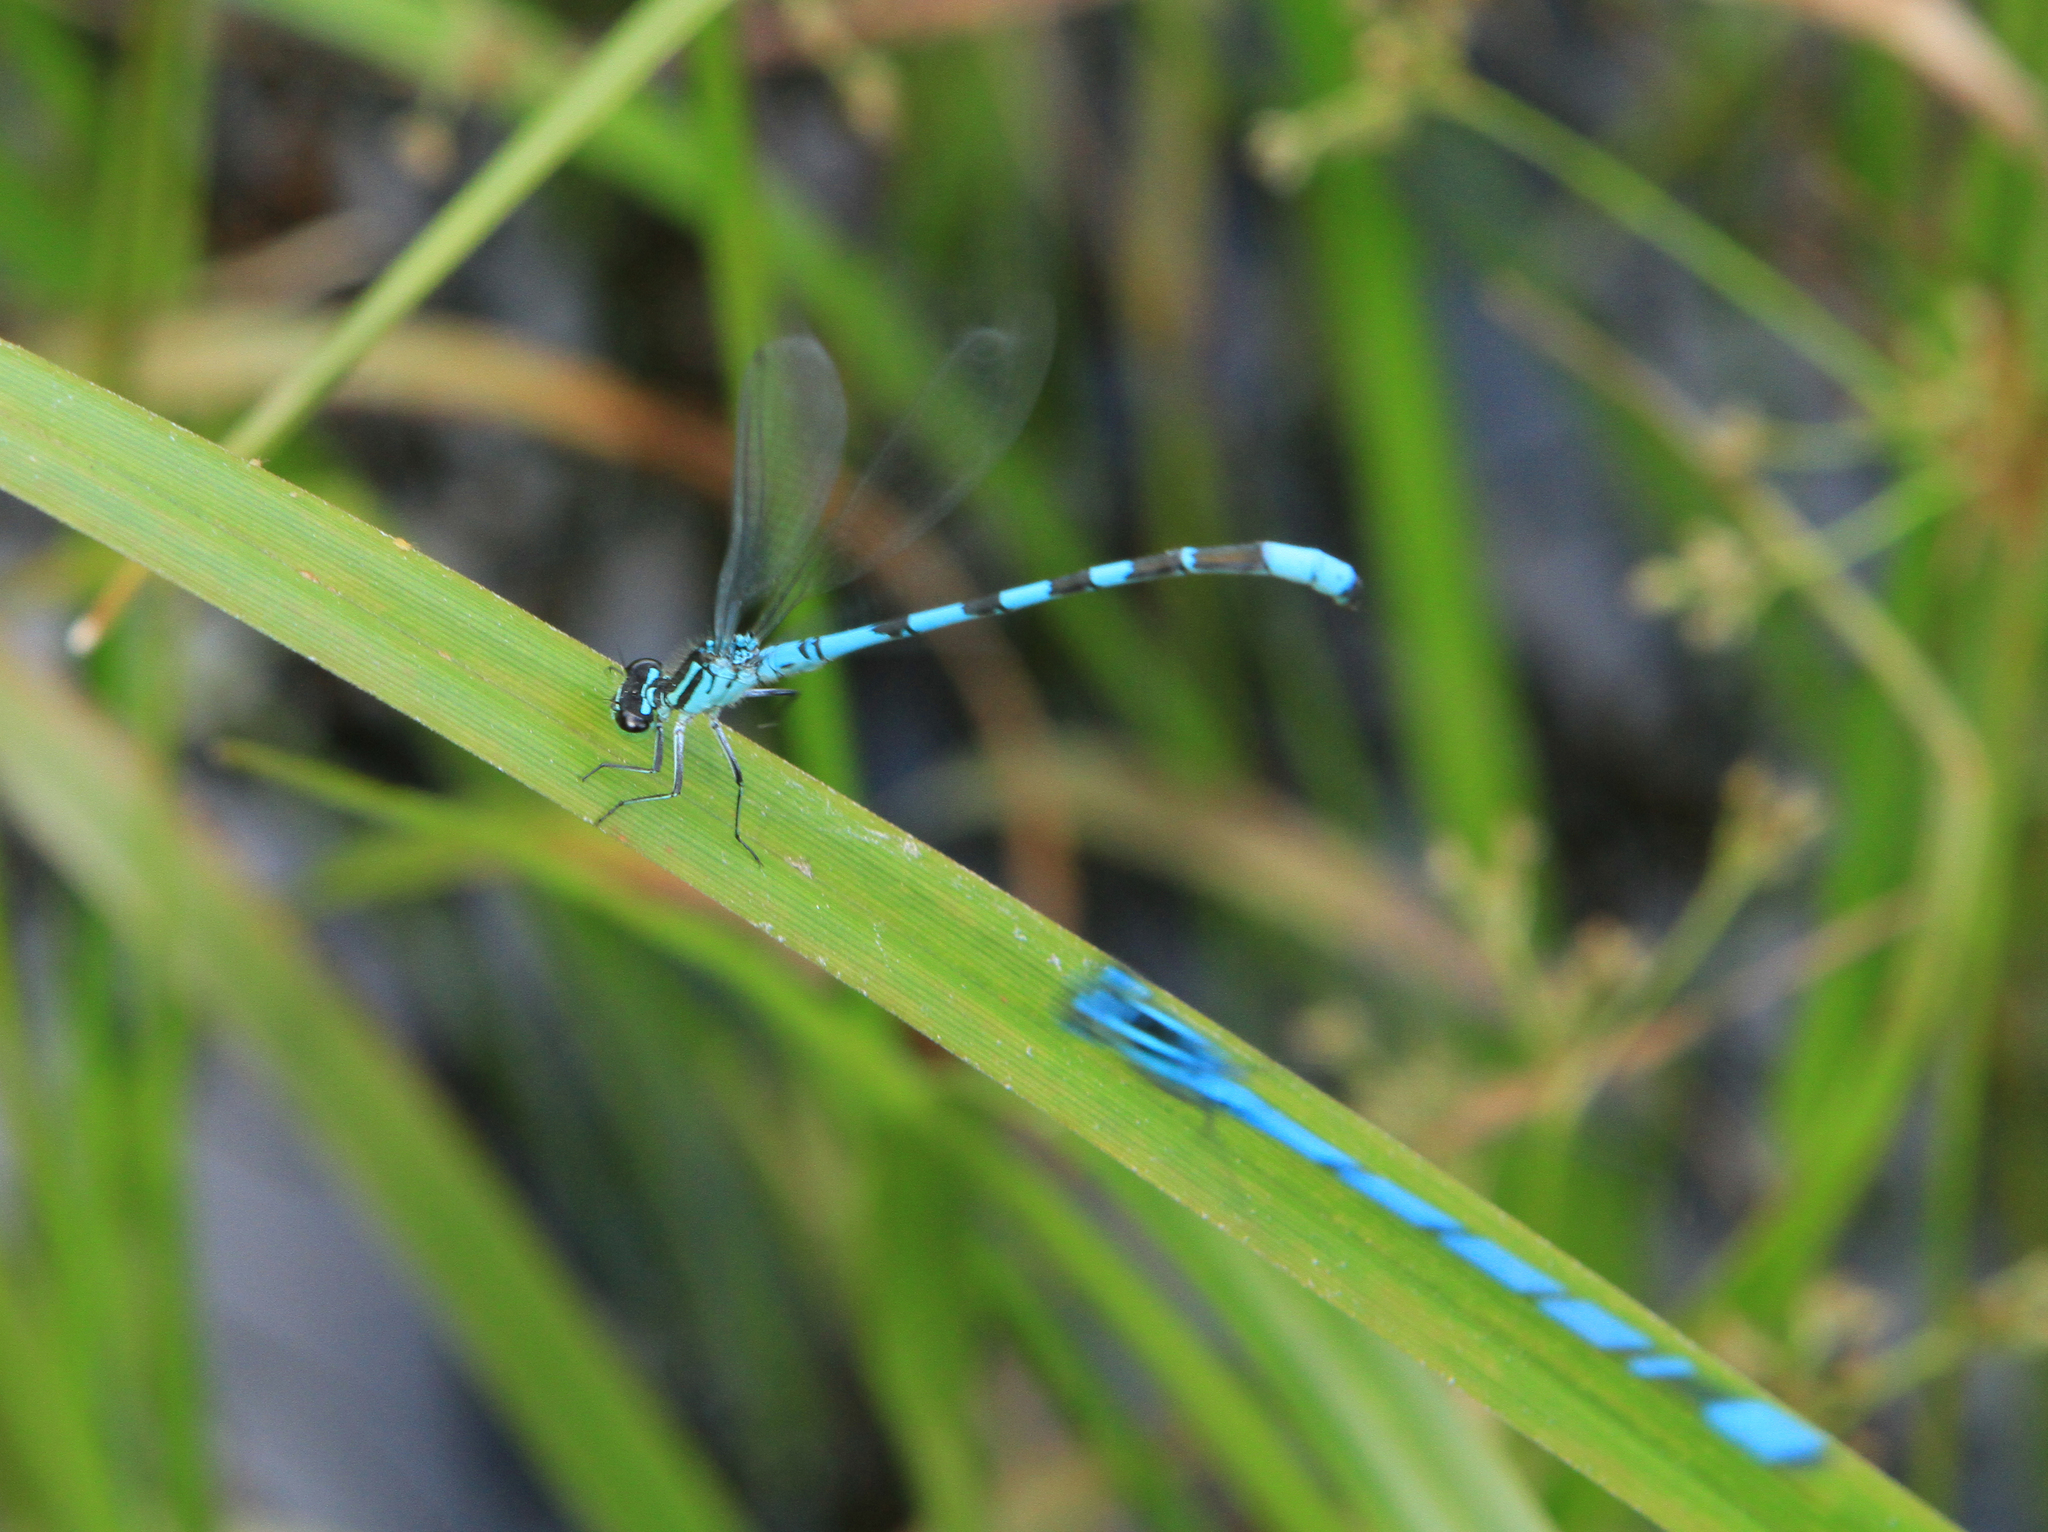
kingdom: Animalia
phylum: Arthropoda
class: Insecta
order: Odonata
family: Coenagrionidae
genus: Coenagrion
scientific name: Coenagrion hastulatum
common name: Spearhead bluet
